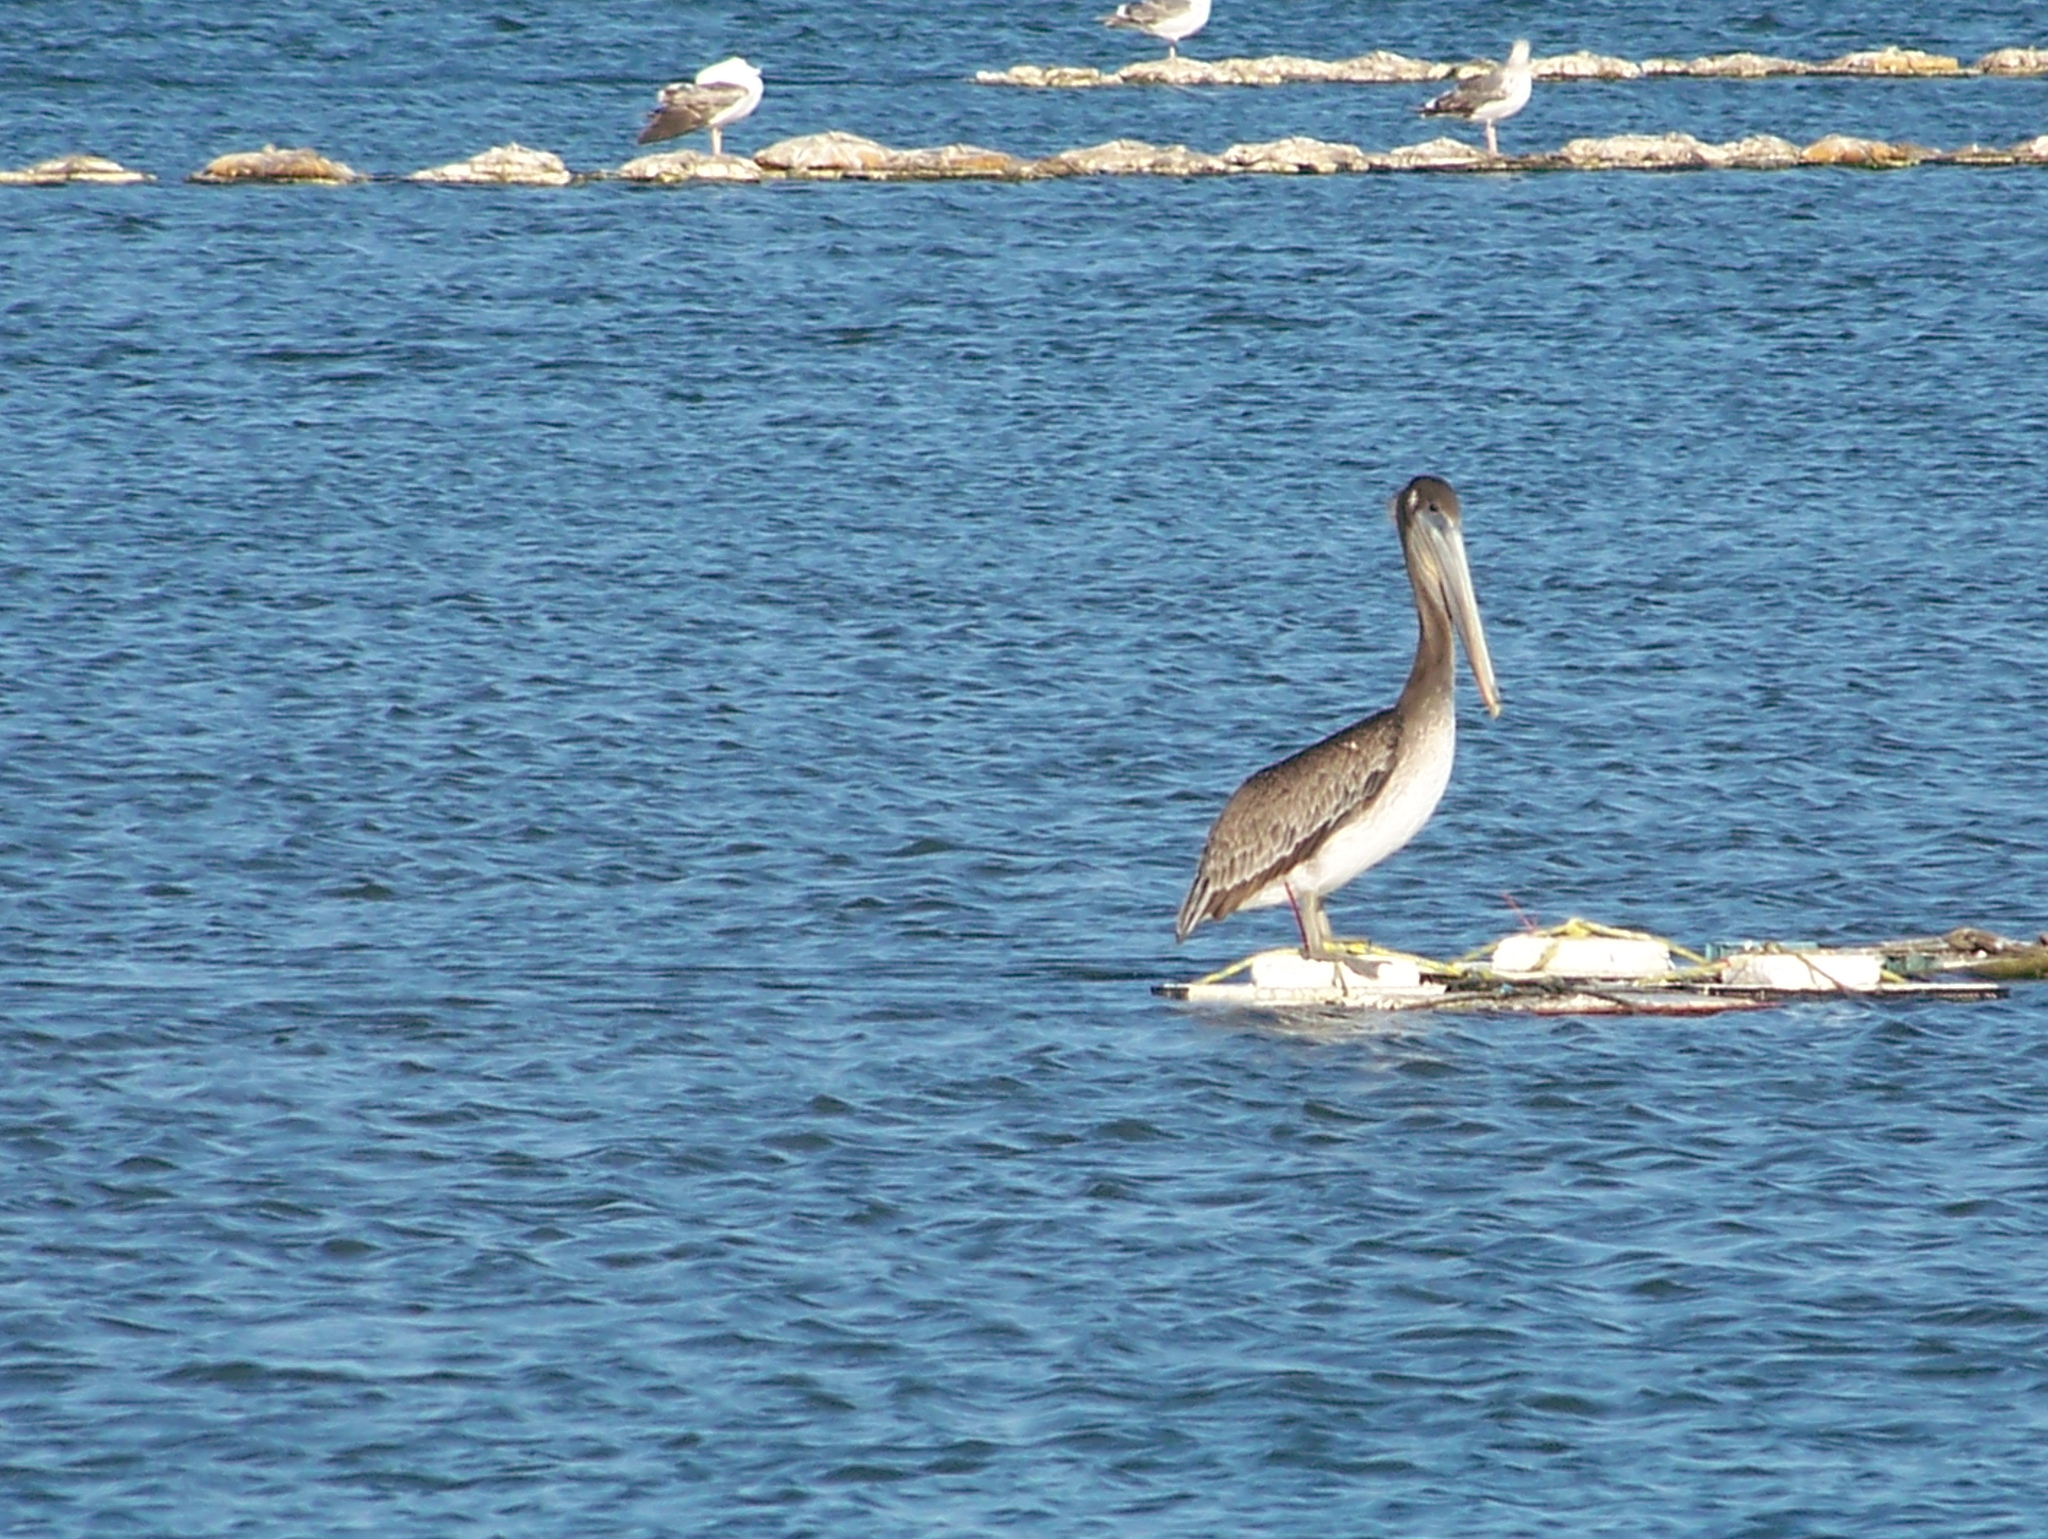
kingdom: Animalia
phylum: Chordata
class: Aves
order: Pelecaniformes
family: Pelecanidae
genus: Pelecanus
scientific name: Pelecanus occidentalis
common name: Brown pelican
